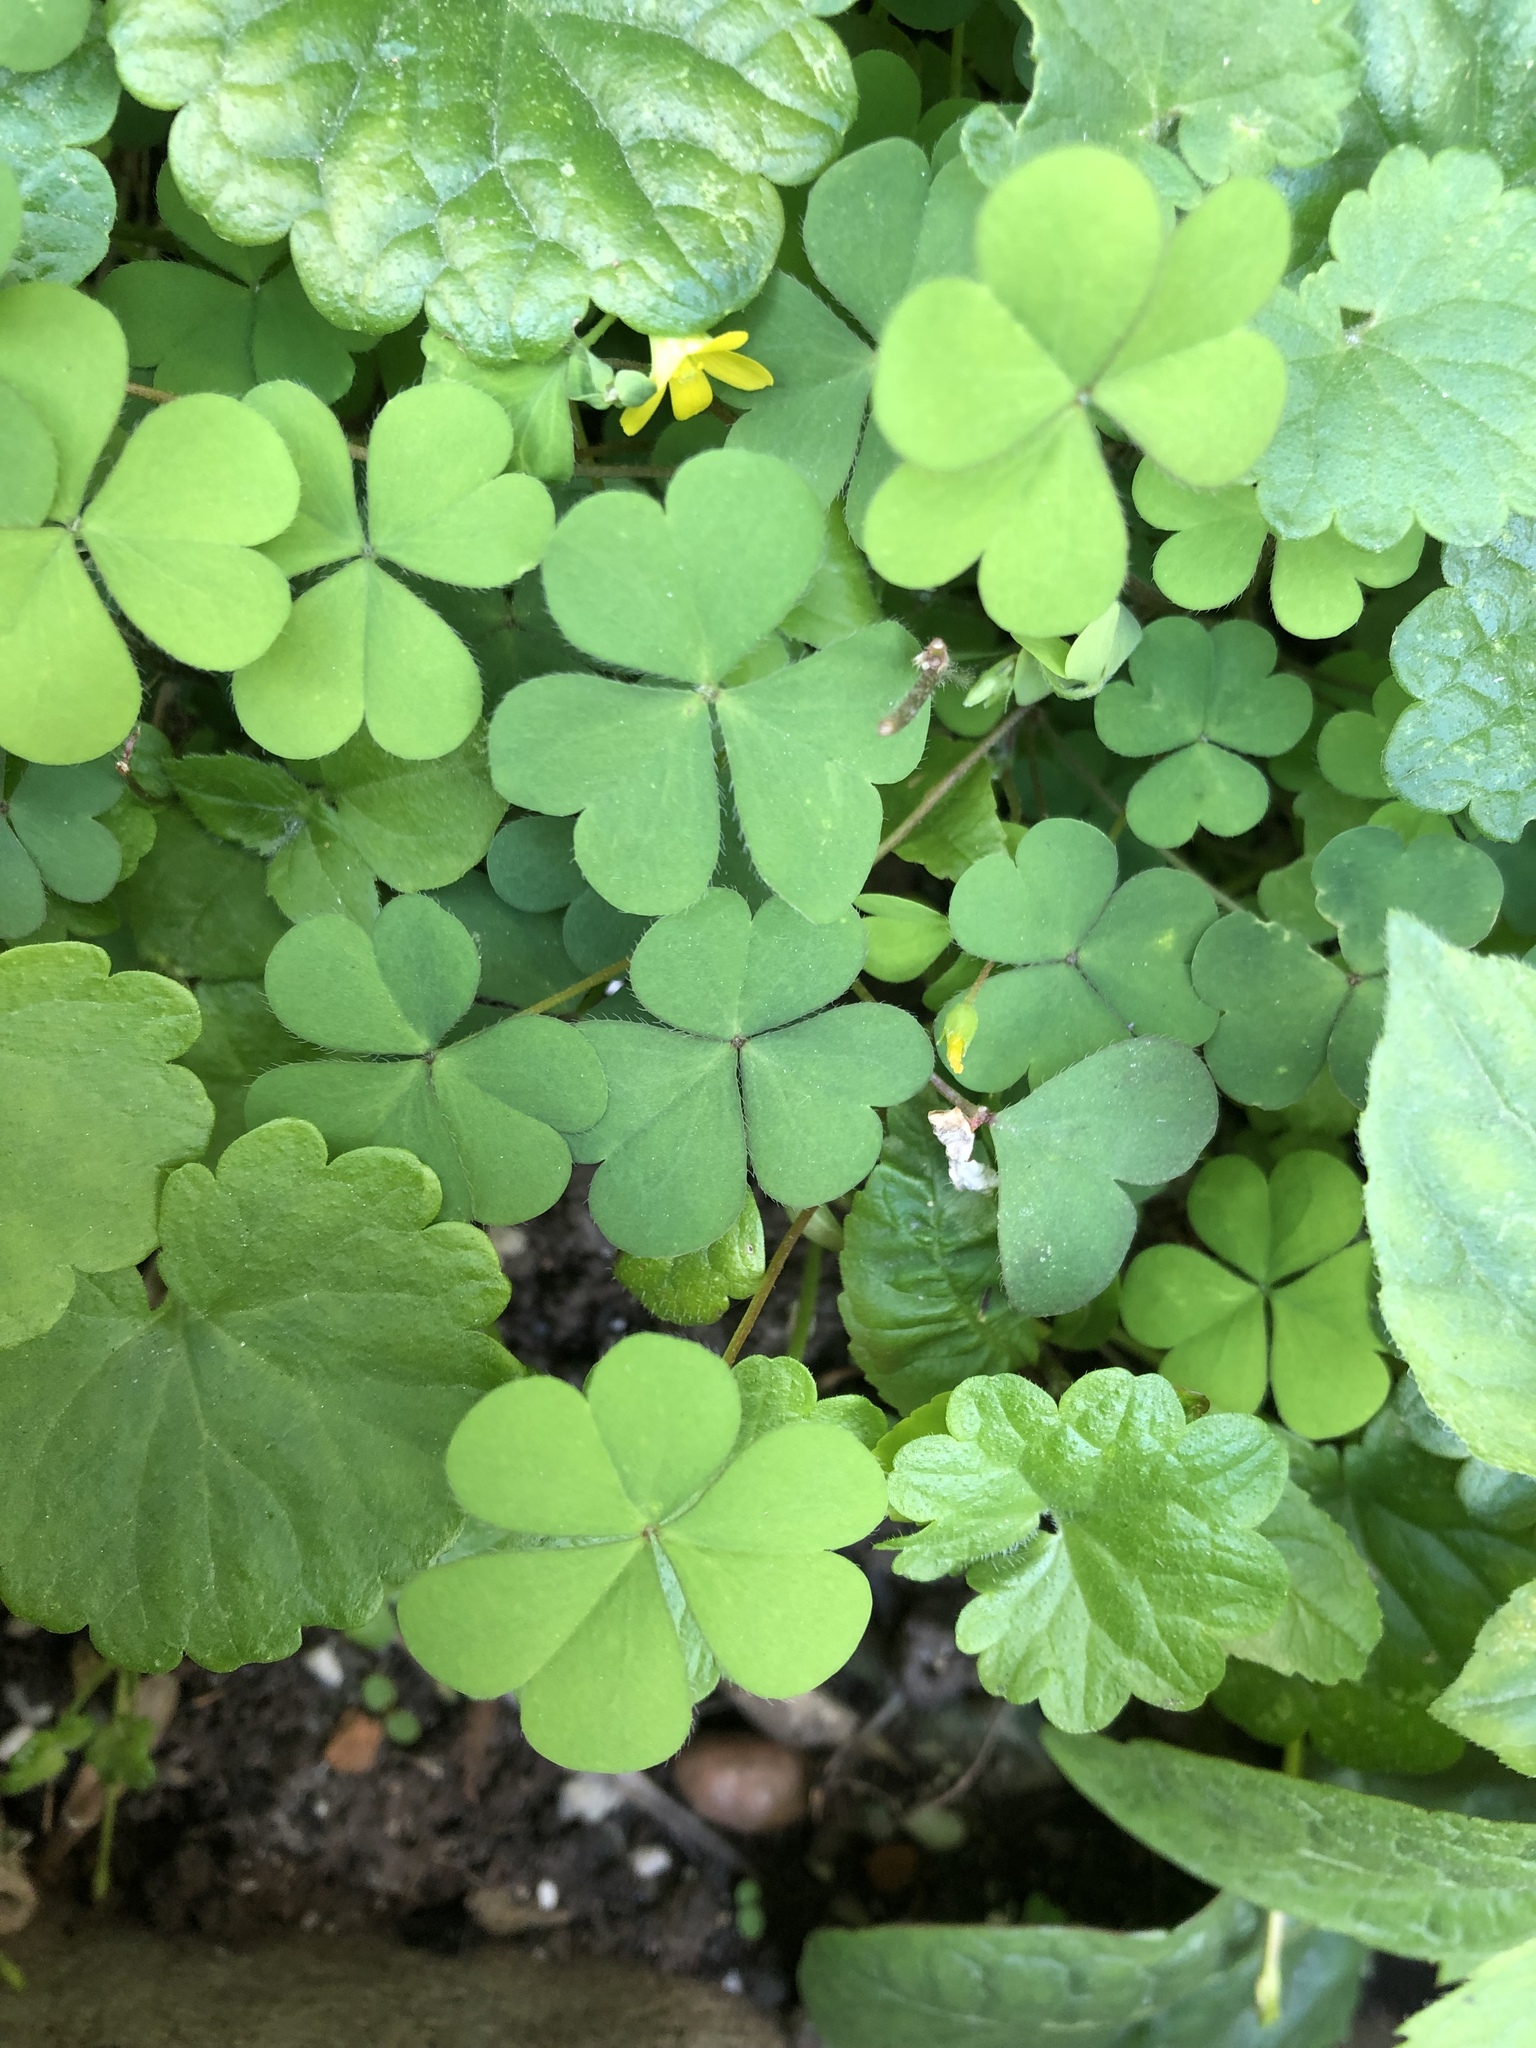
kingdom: Plantae
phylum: Tracheophyta
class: Magnoliopsida
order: Oxalidales
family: Oxalidaceae
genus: Oxalis
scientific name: Oxalis stricta
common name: Upright yellow-sorrel
